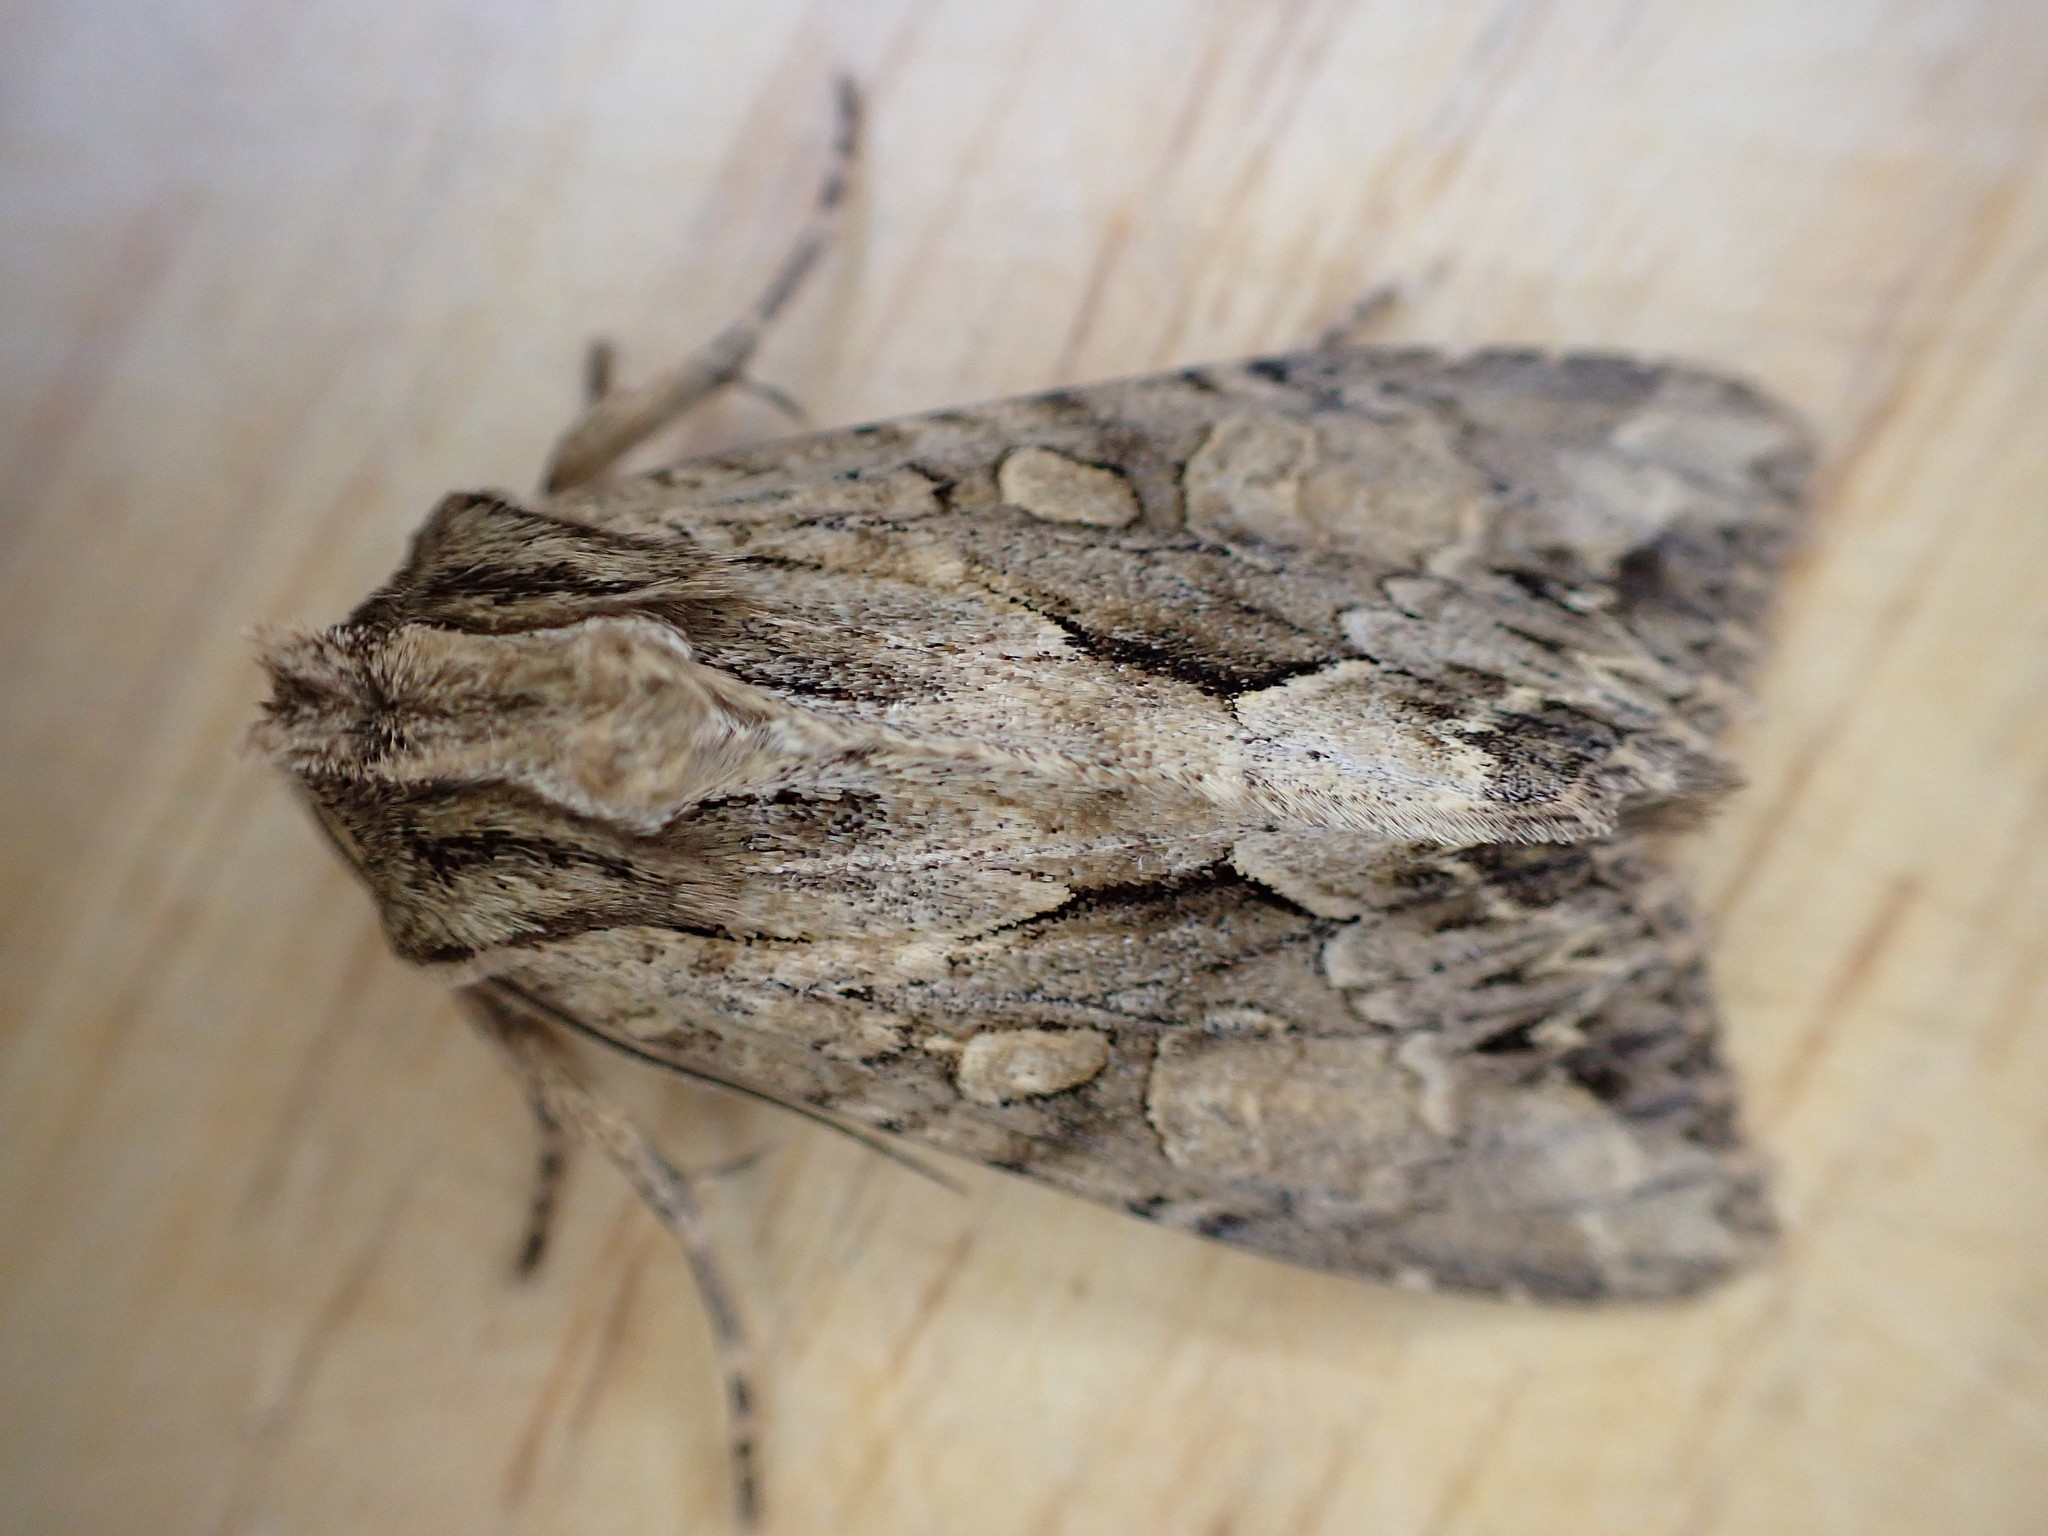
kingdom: Animalia
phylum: Arthropoda
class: Insecta
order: Lepidoptera
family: Noctuidae
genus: Apamea
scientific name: Apamea monoglypha
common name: Dark arches
